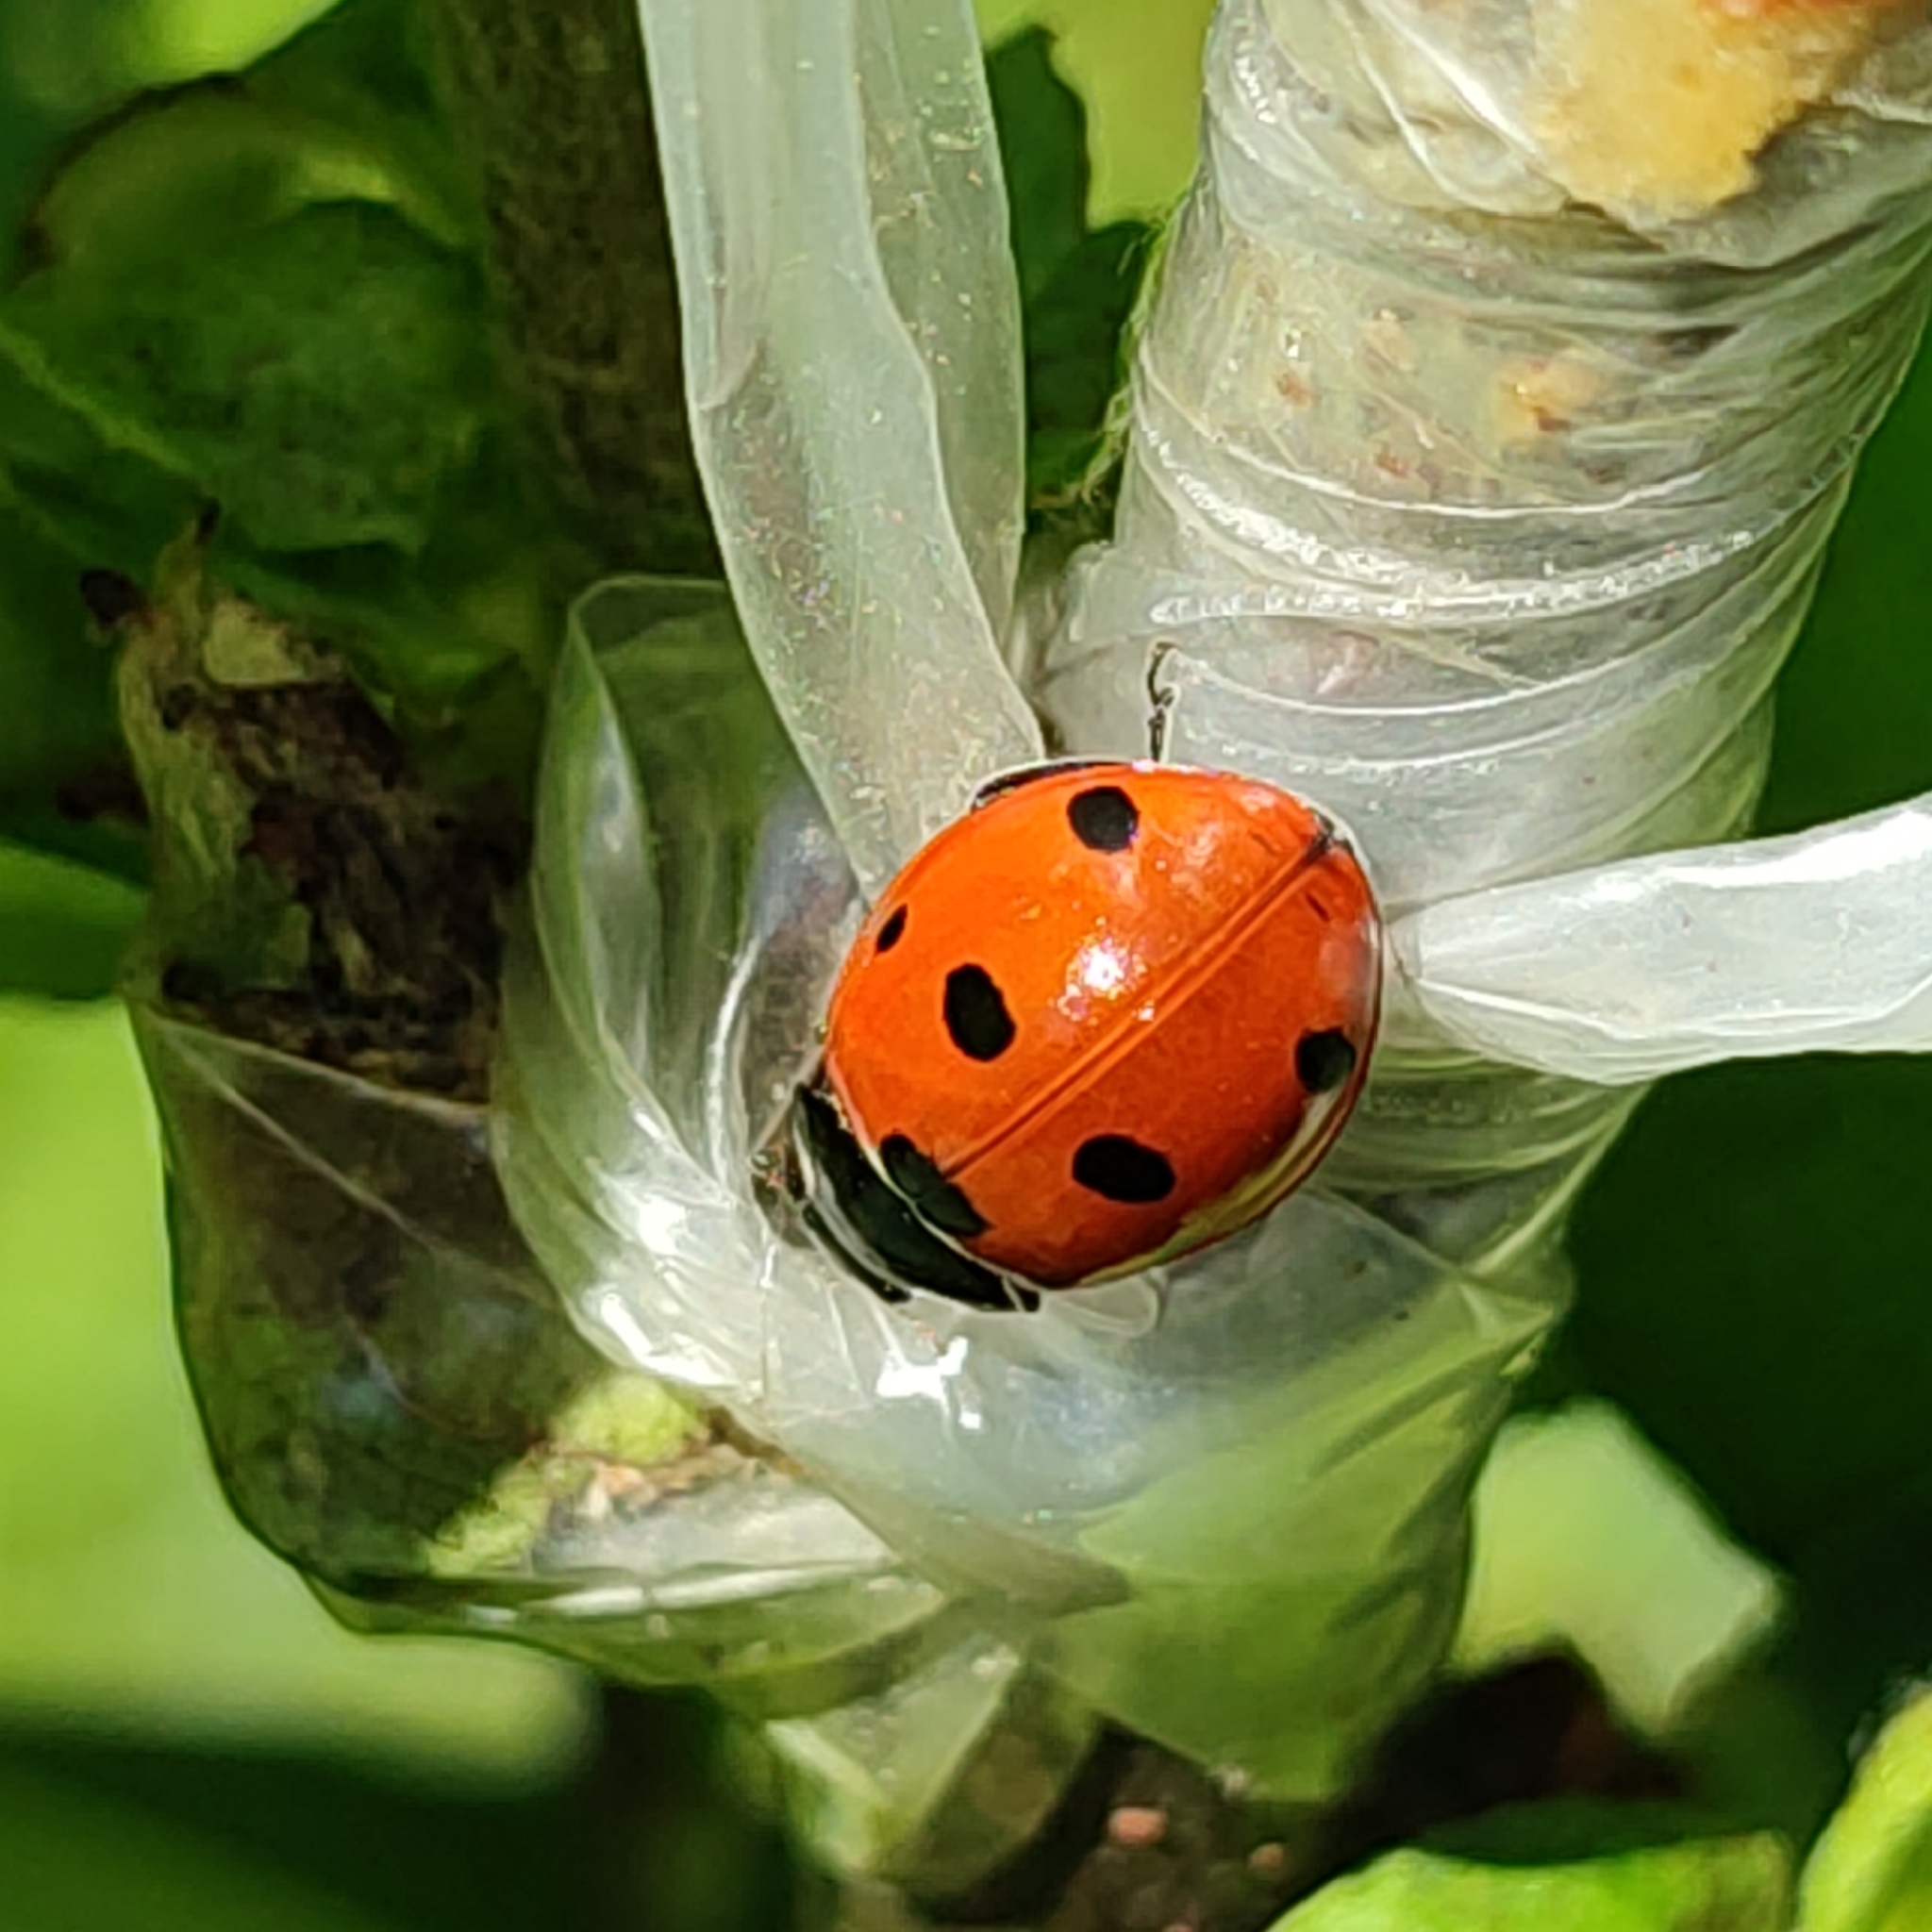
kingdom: Animalia
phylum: Arthropoda
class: Insecta
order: Coleoptera
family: Coccinellidae
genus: Coccinella
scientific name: Coccinella septempunctata
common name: Sevenspotted lady beetle
